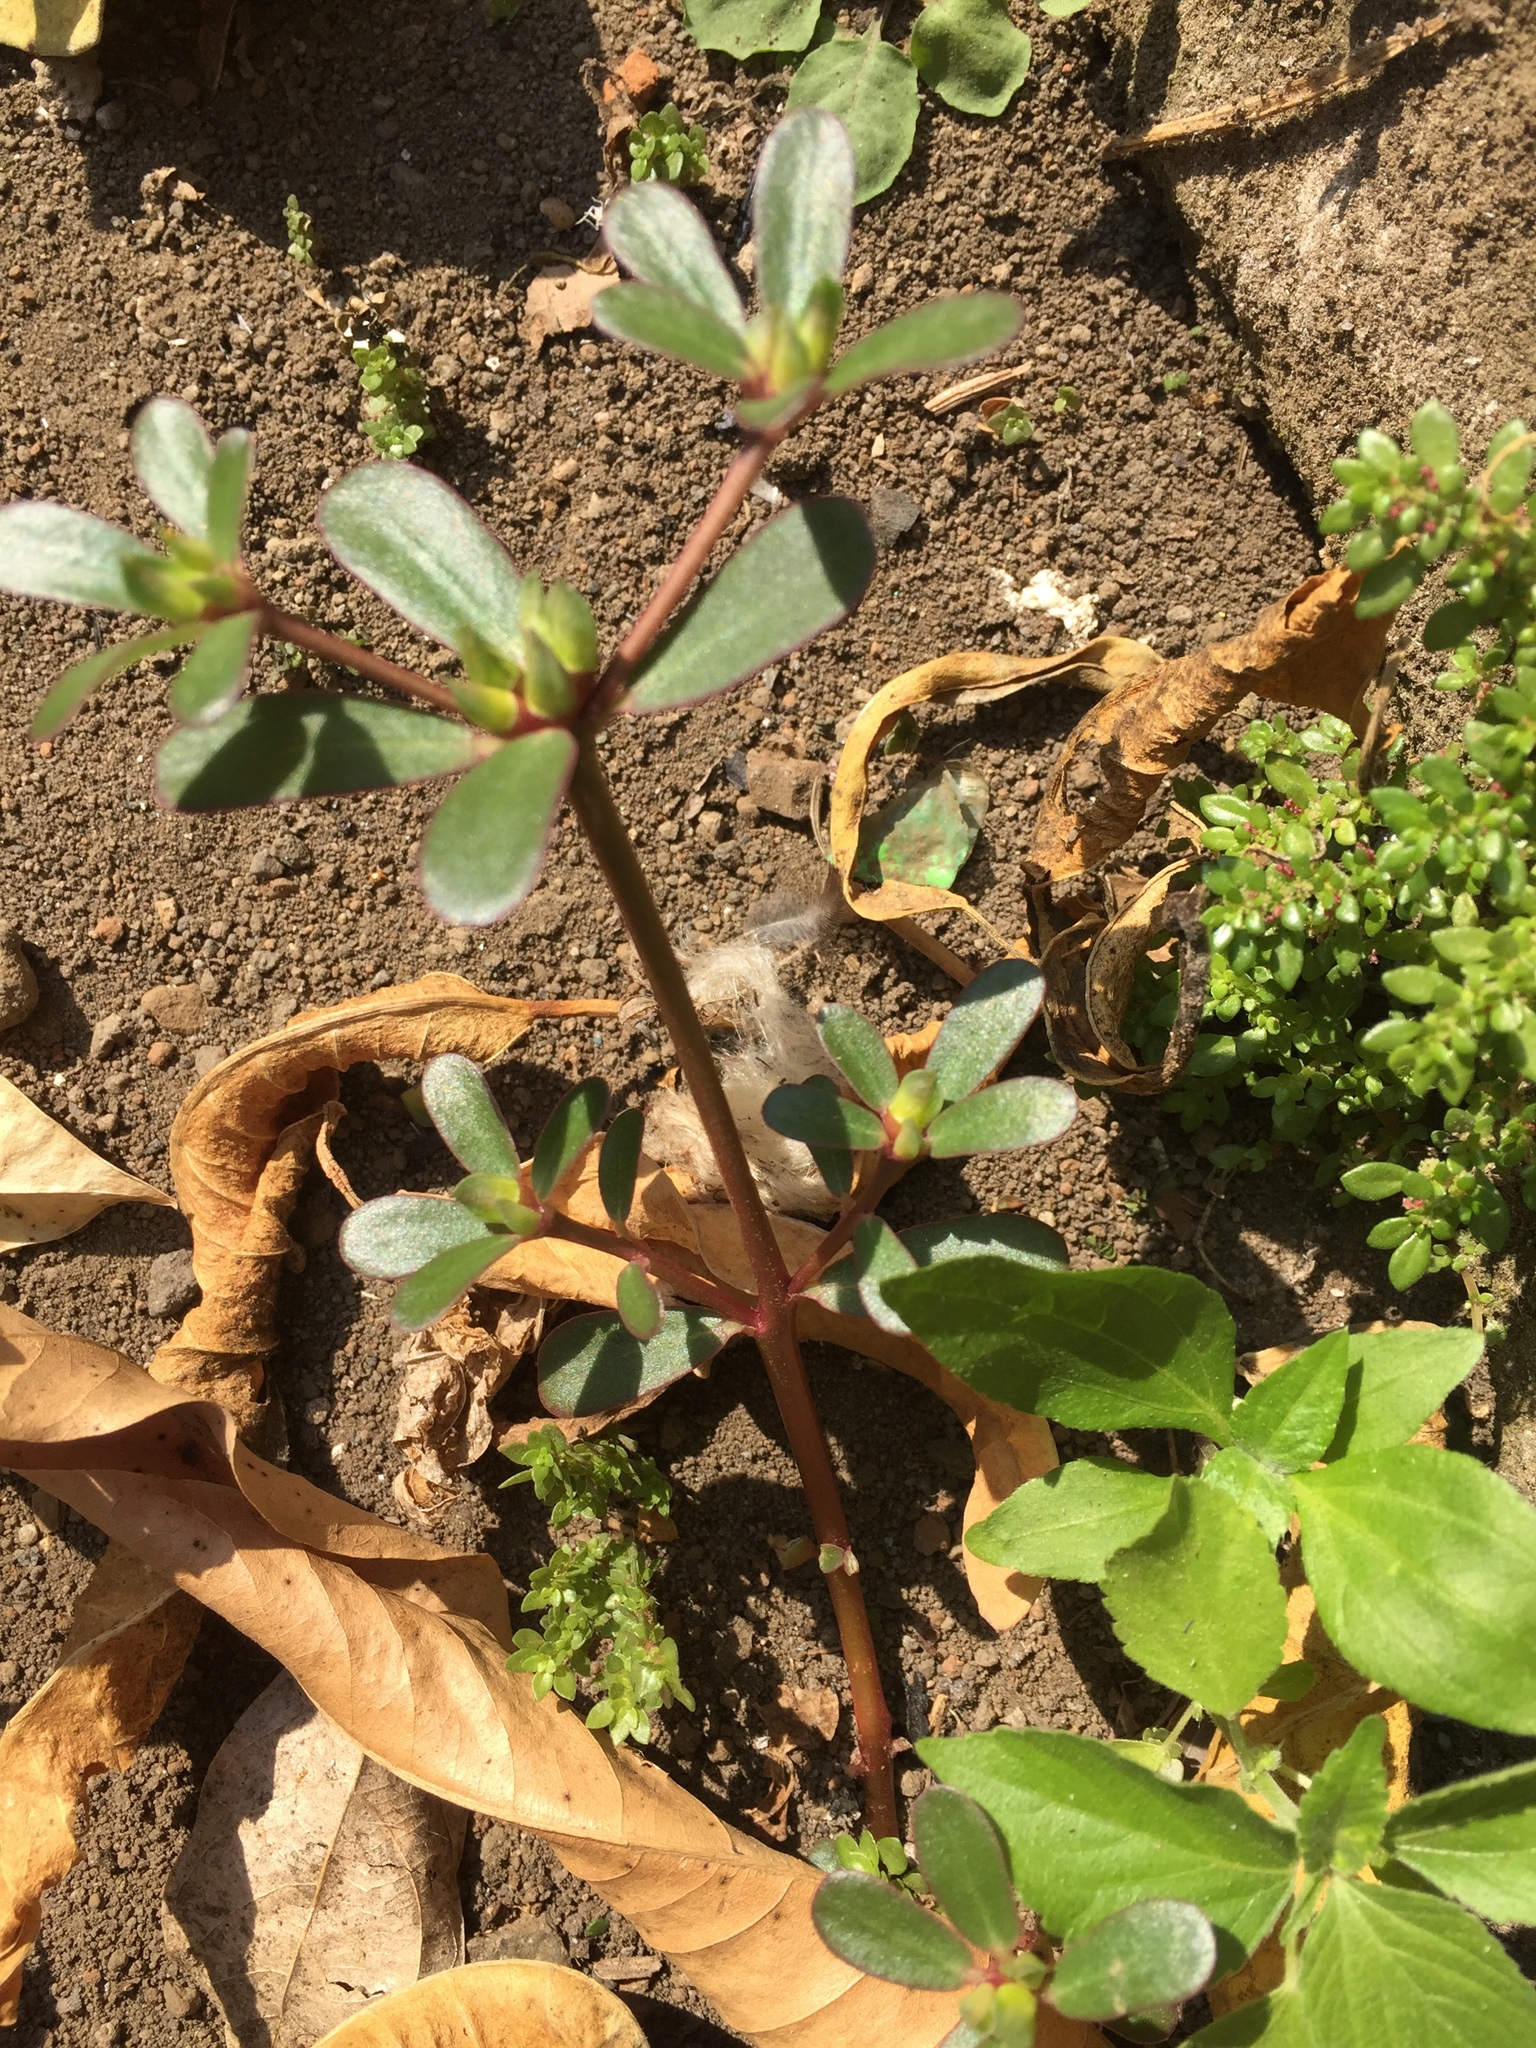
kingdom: Plantae
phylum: Tracheophyta
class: Magnoliopsida
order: Caryophyllales
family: Portulacaceae
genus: Portulaca
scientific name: Portulaca oleracea
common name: Common purslane
